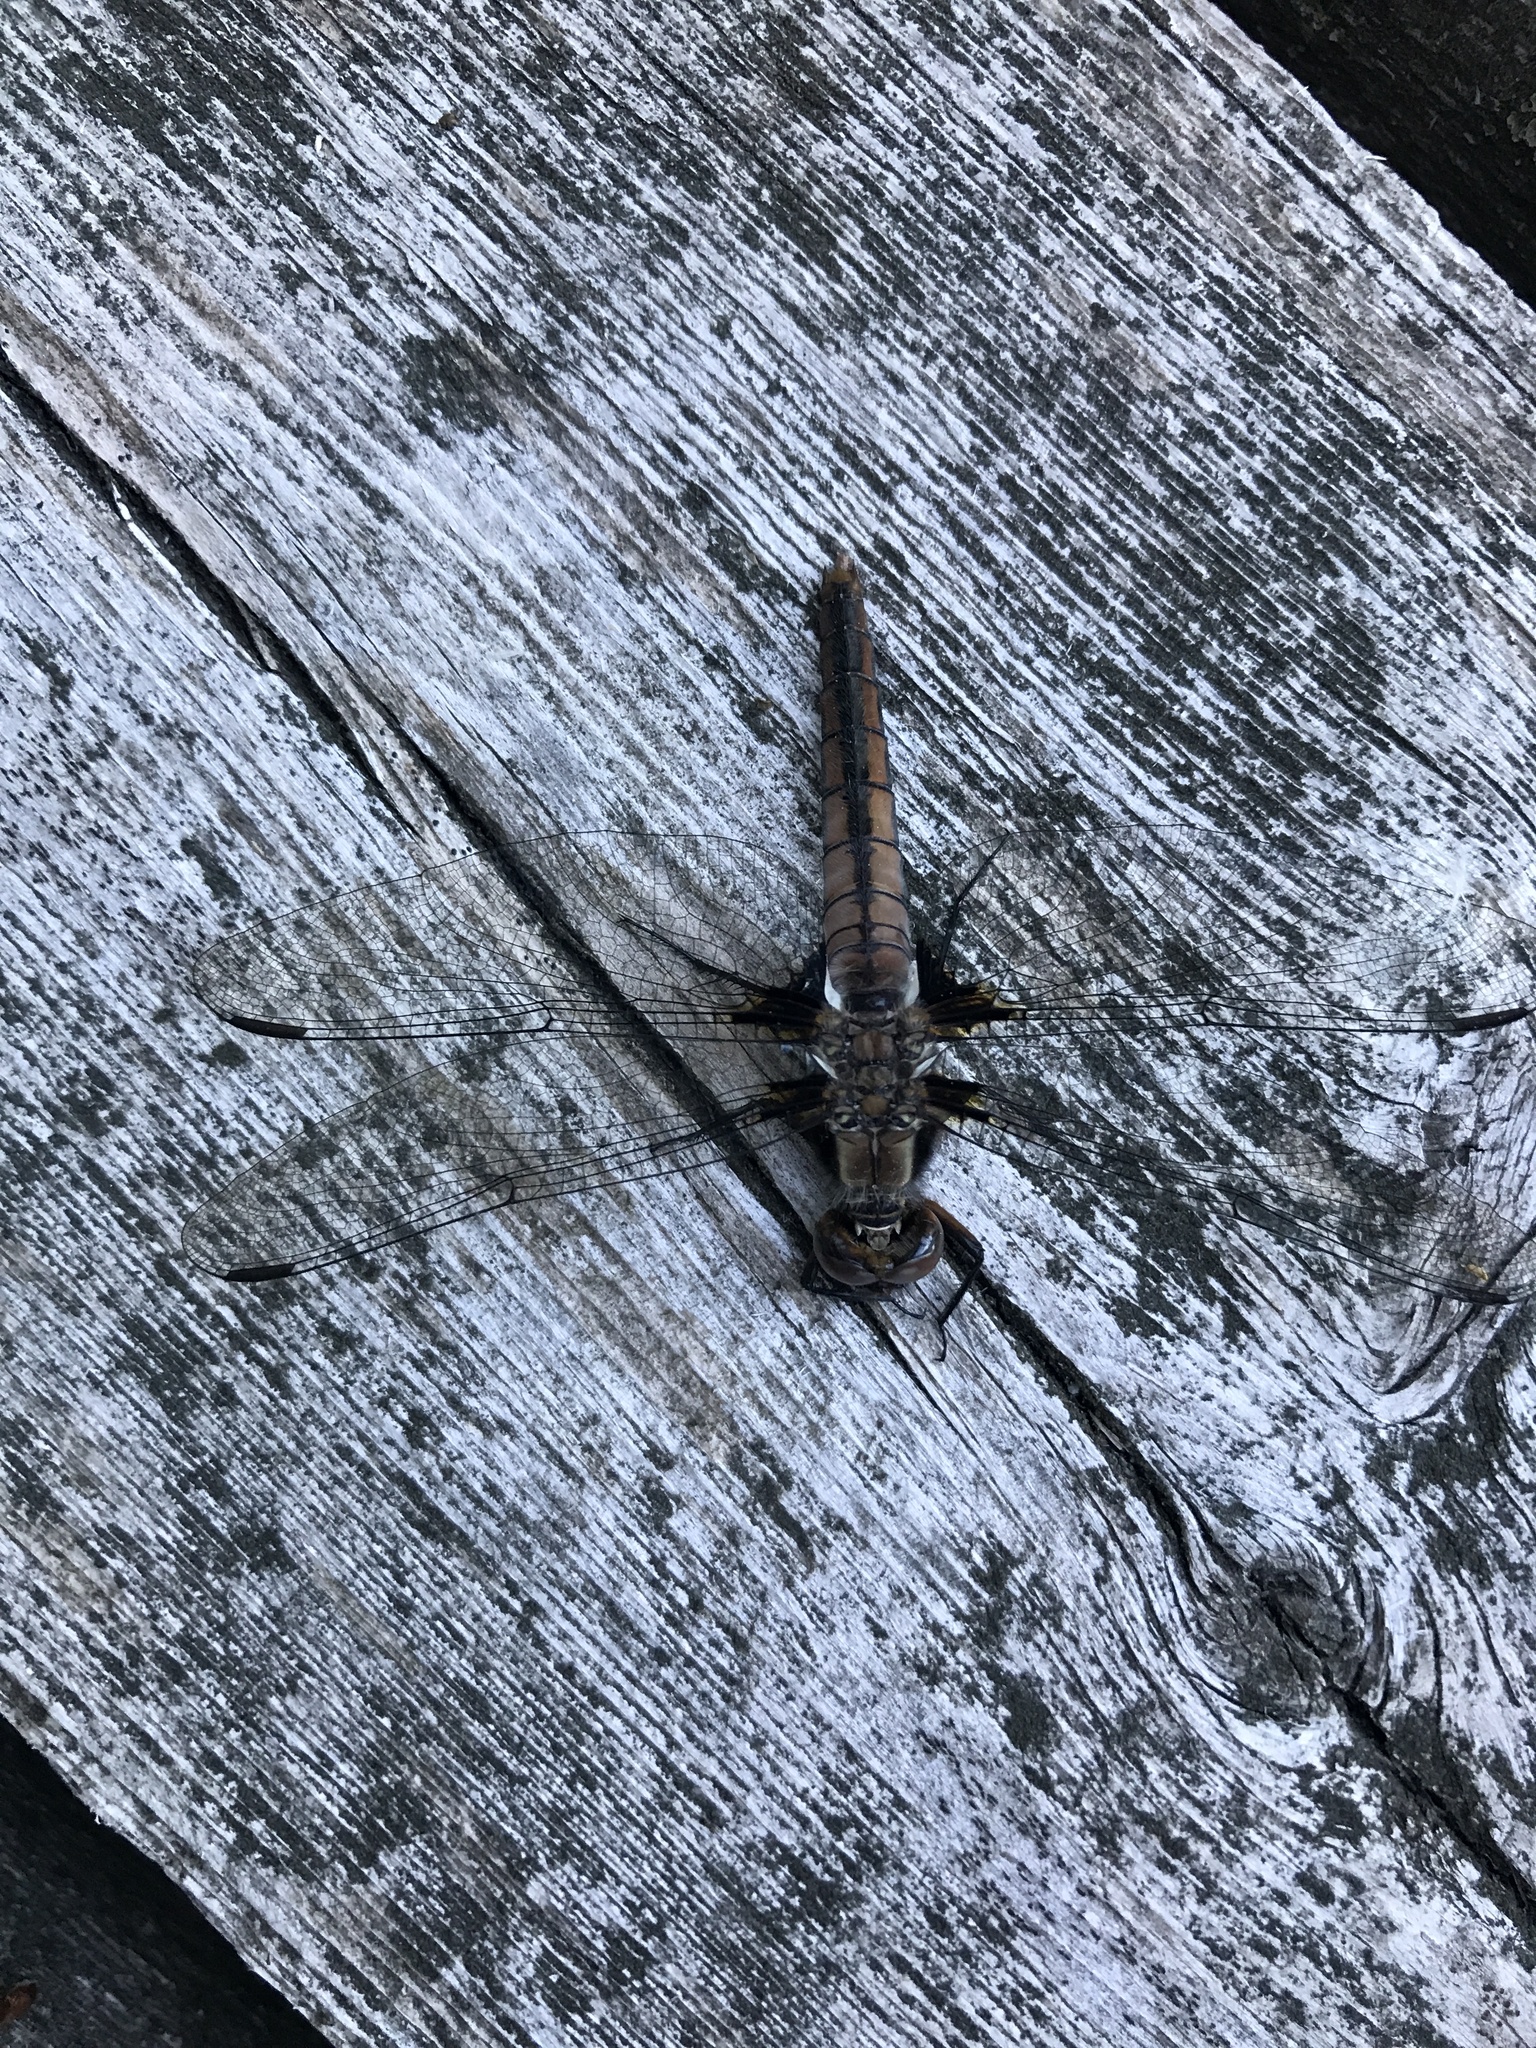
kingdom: Animalia
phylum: Arthropoda
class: Insecta
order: Odonata
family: Libellulidae
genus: Ladona
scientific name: Ladona julia
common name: Chalk-fronted corporal
